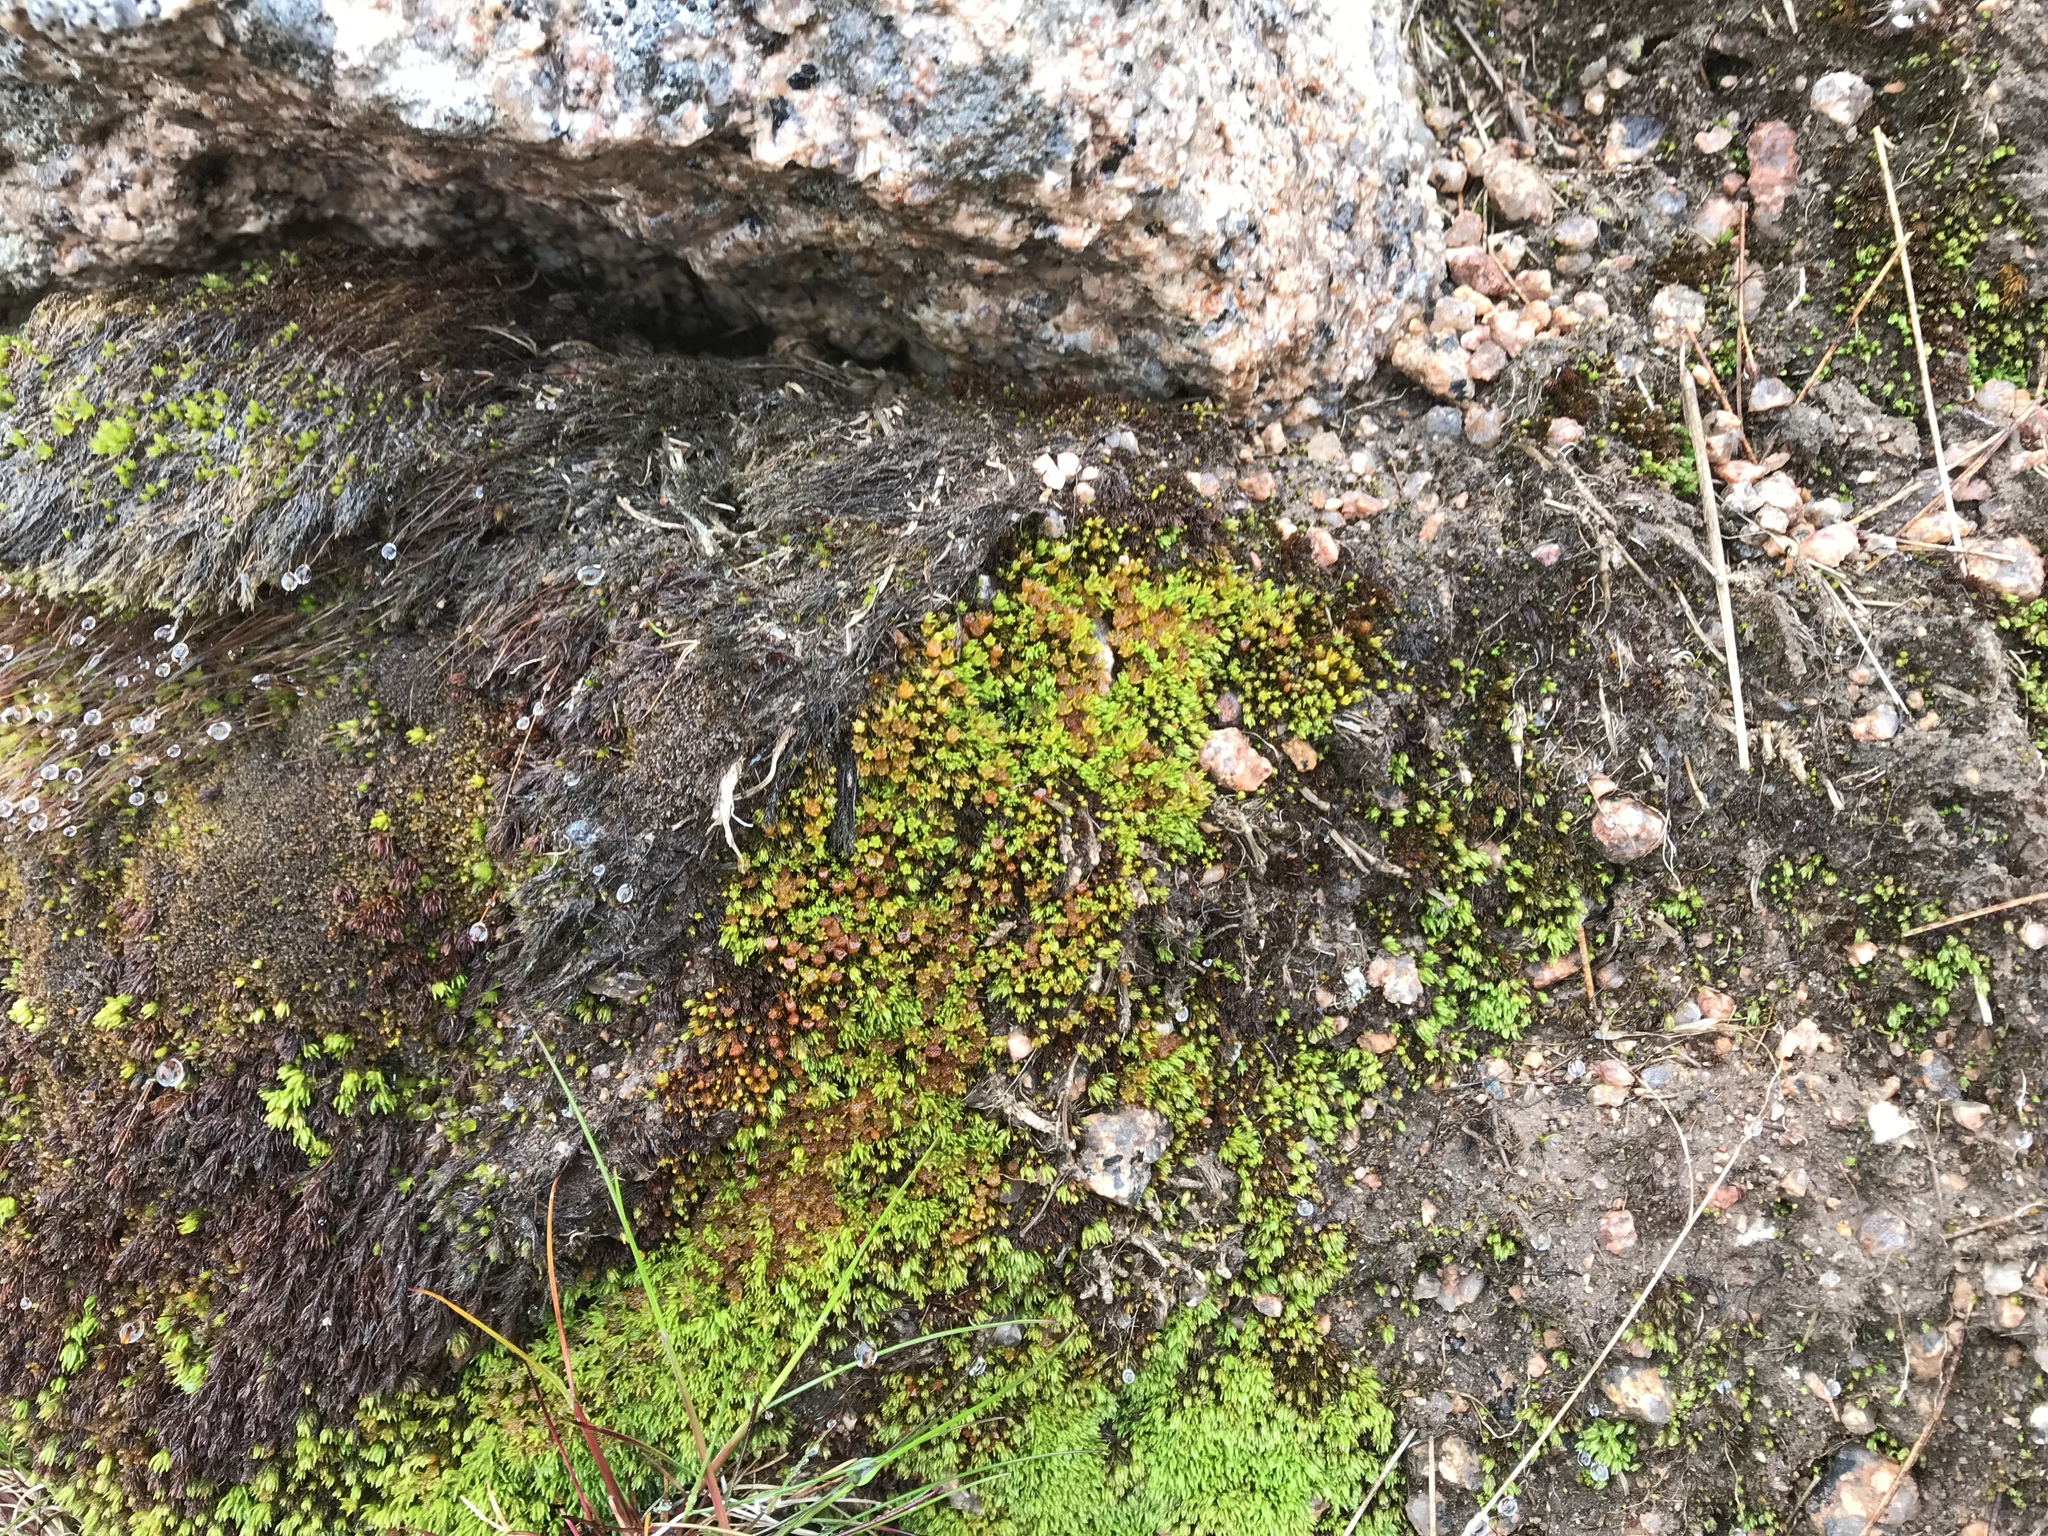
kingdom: Plantae
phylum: Bryophyta
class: Polytrichopsida
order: Polytrichales
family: Polytrichaceae
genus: Oligotrichum
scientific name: Oligotrichum hercynicum
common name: Hercynian hair moss
